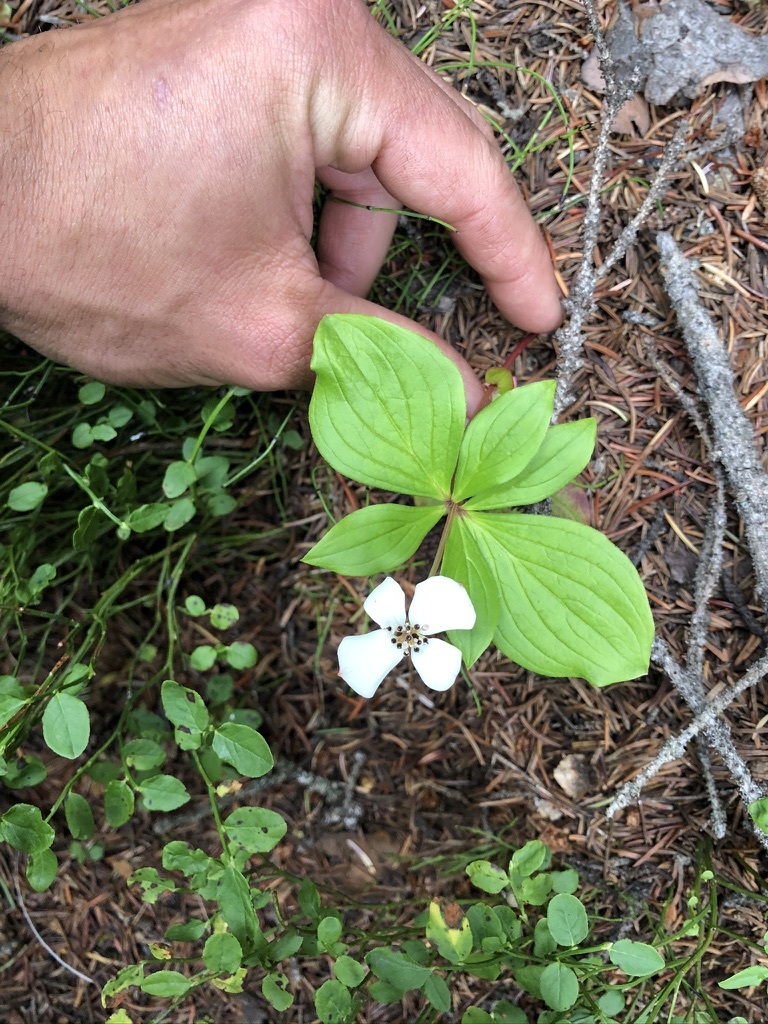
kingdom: Plantae
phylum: Tracheophyta
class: Magnoliopsida
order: Cornales
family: Cornaceae
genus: Cornus
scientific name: Cornus canadensis
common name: Creeping dogwood
